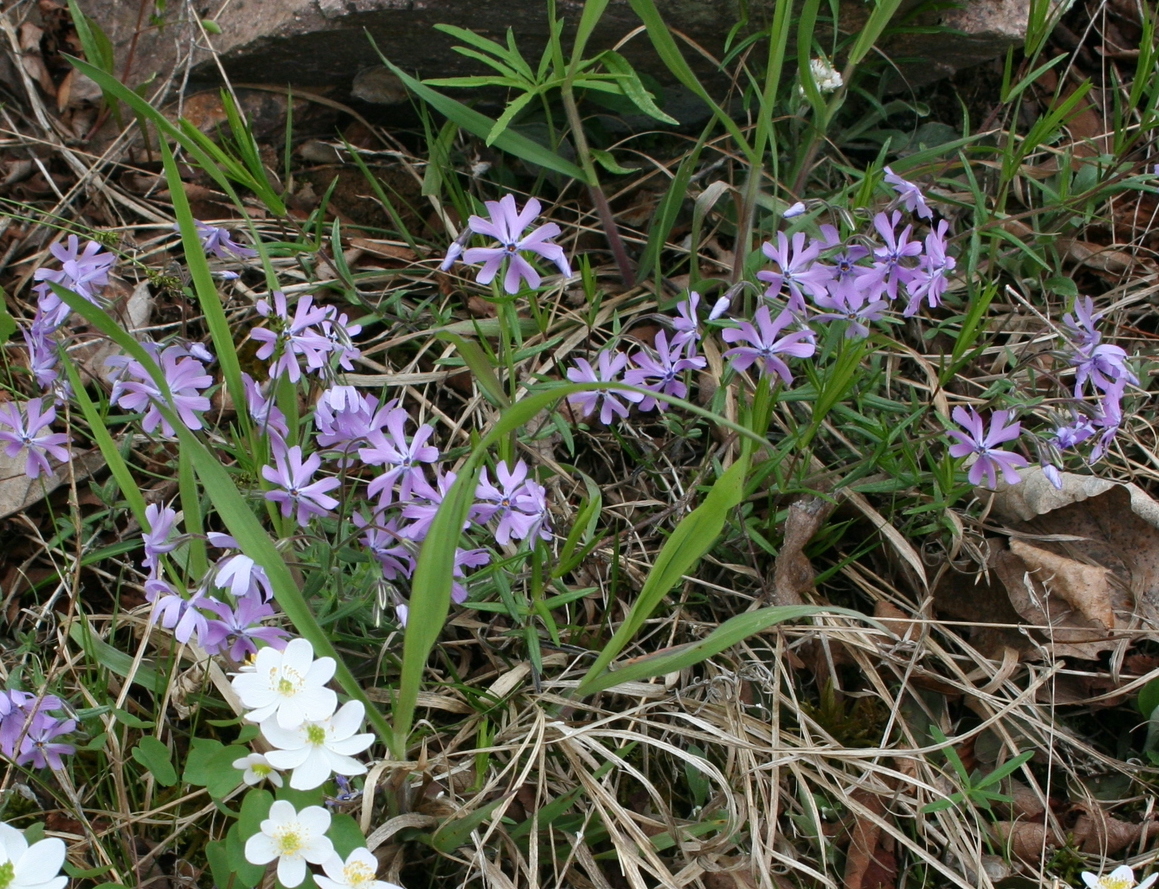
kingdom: Plantae
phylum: Tracheophyta
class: Magnoliopsida
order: Ericales
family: Polemoniaceae
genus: Phlox
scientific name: Phlox bifida
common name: Sand phlox
